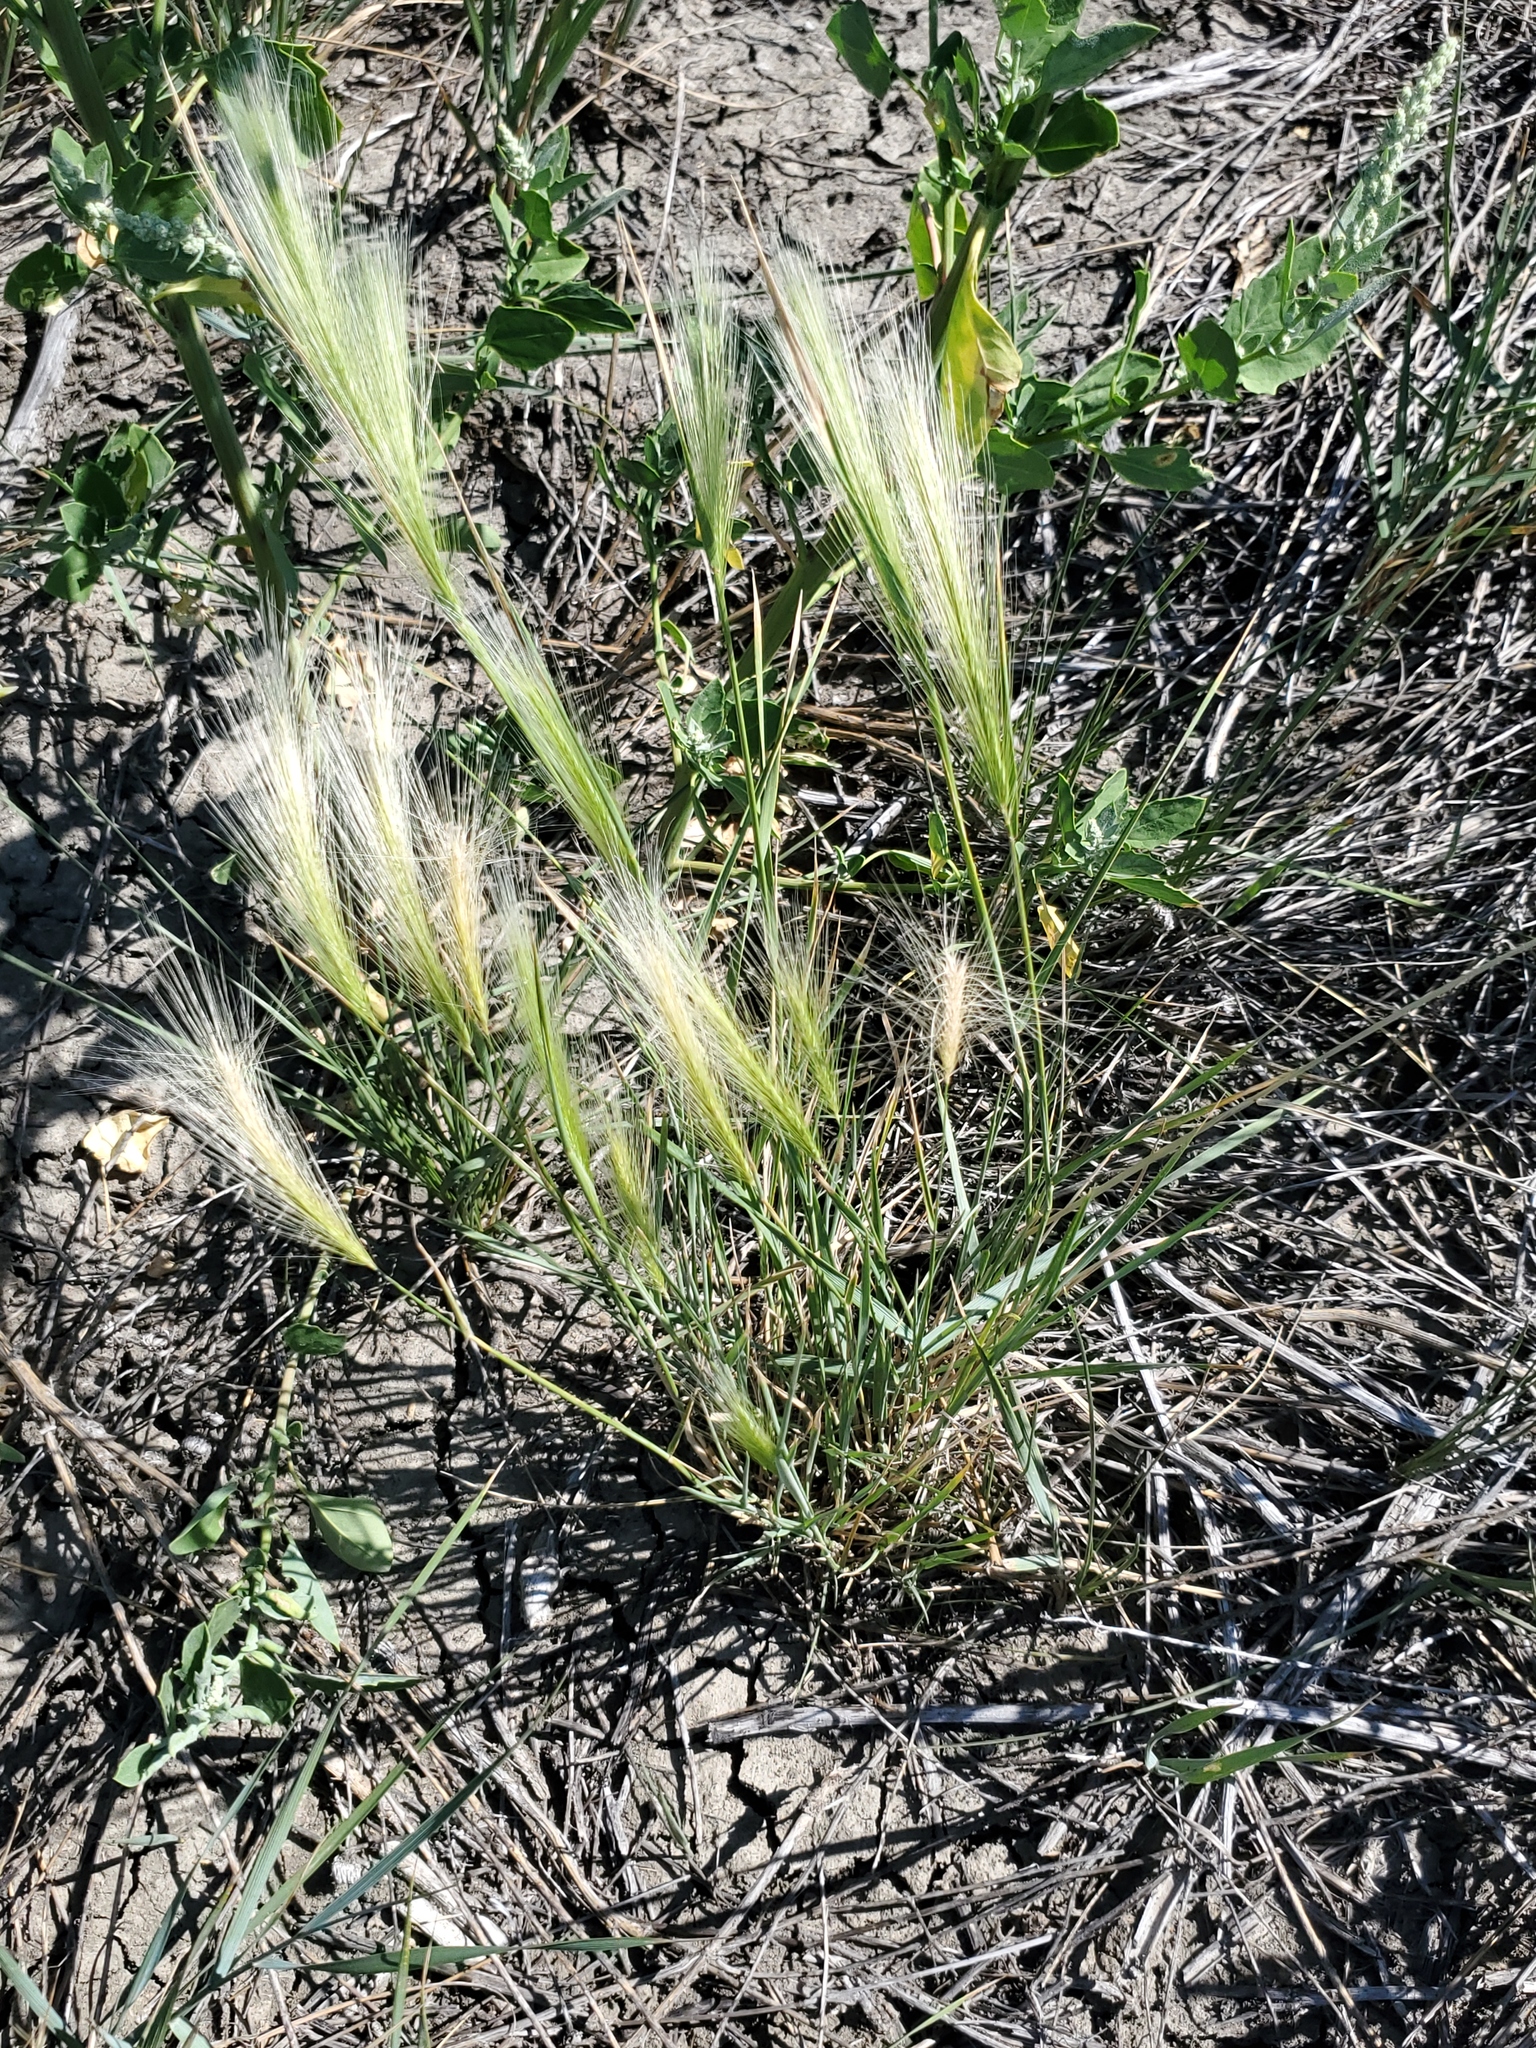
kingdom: Plantae
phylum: Tracheophyta
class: Liliopsida
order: Poales
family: Poaceae
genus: Hordeum
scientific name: Hordeum jubatum
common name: Foxtail barley
